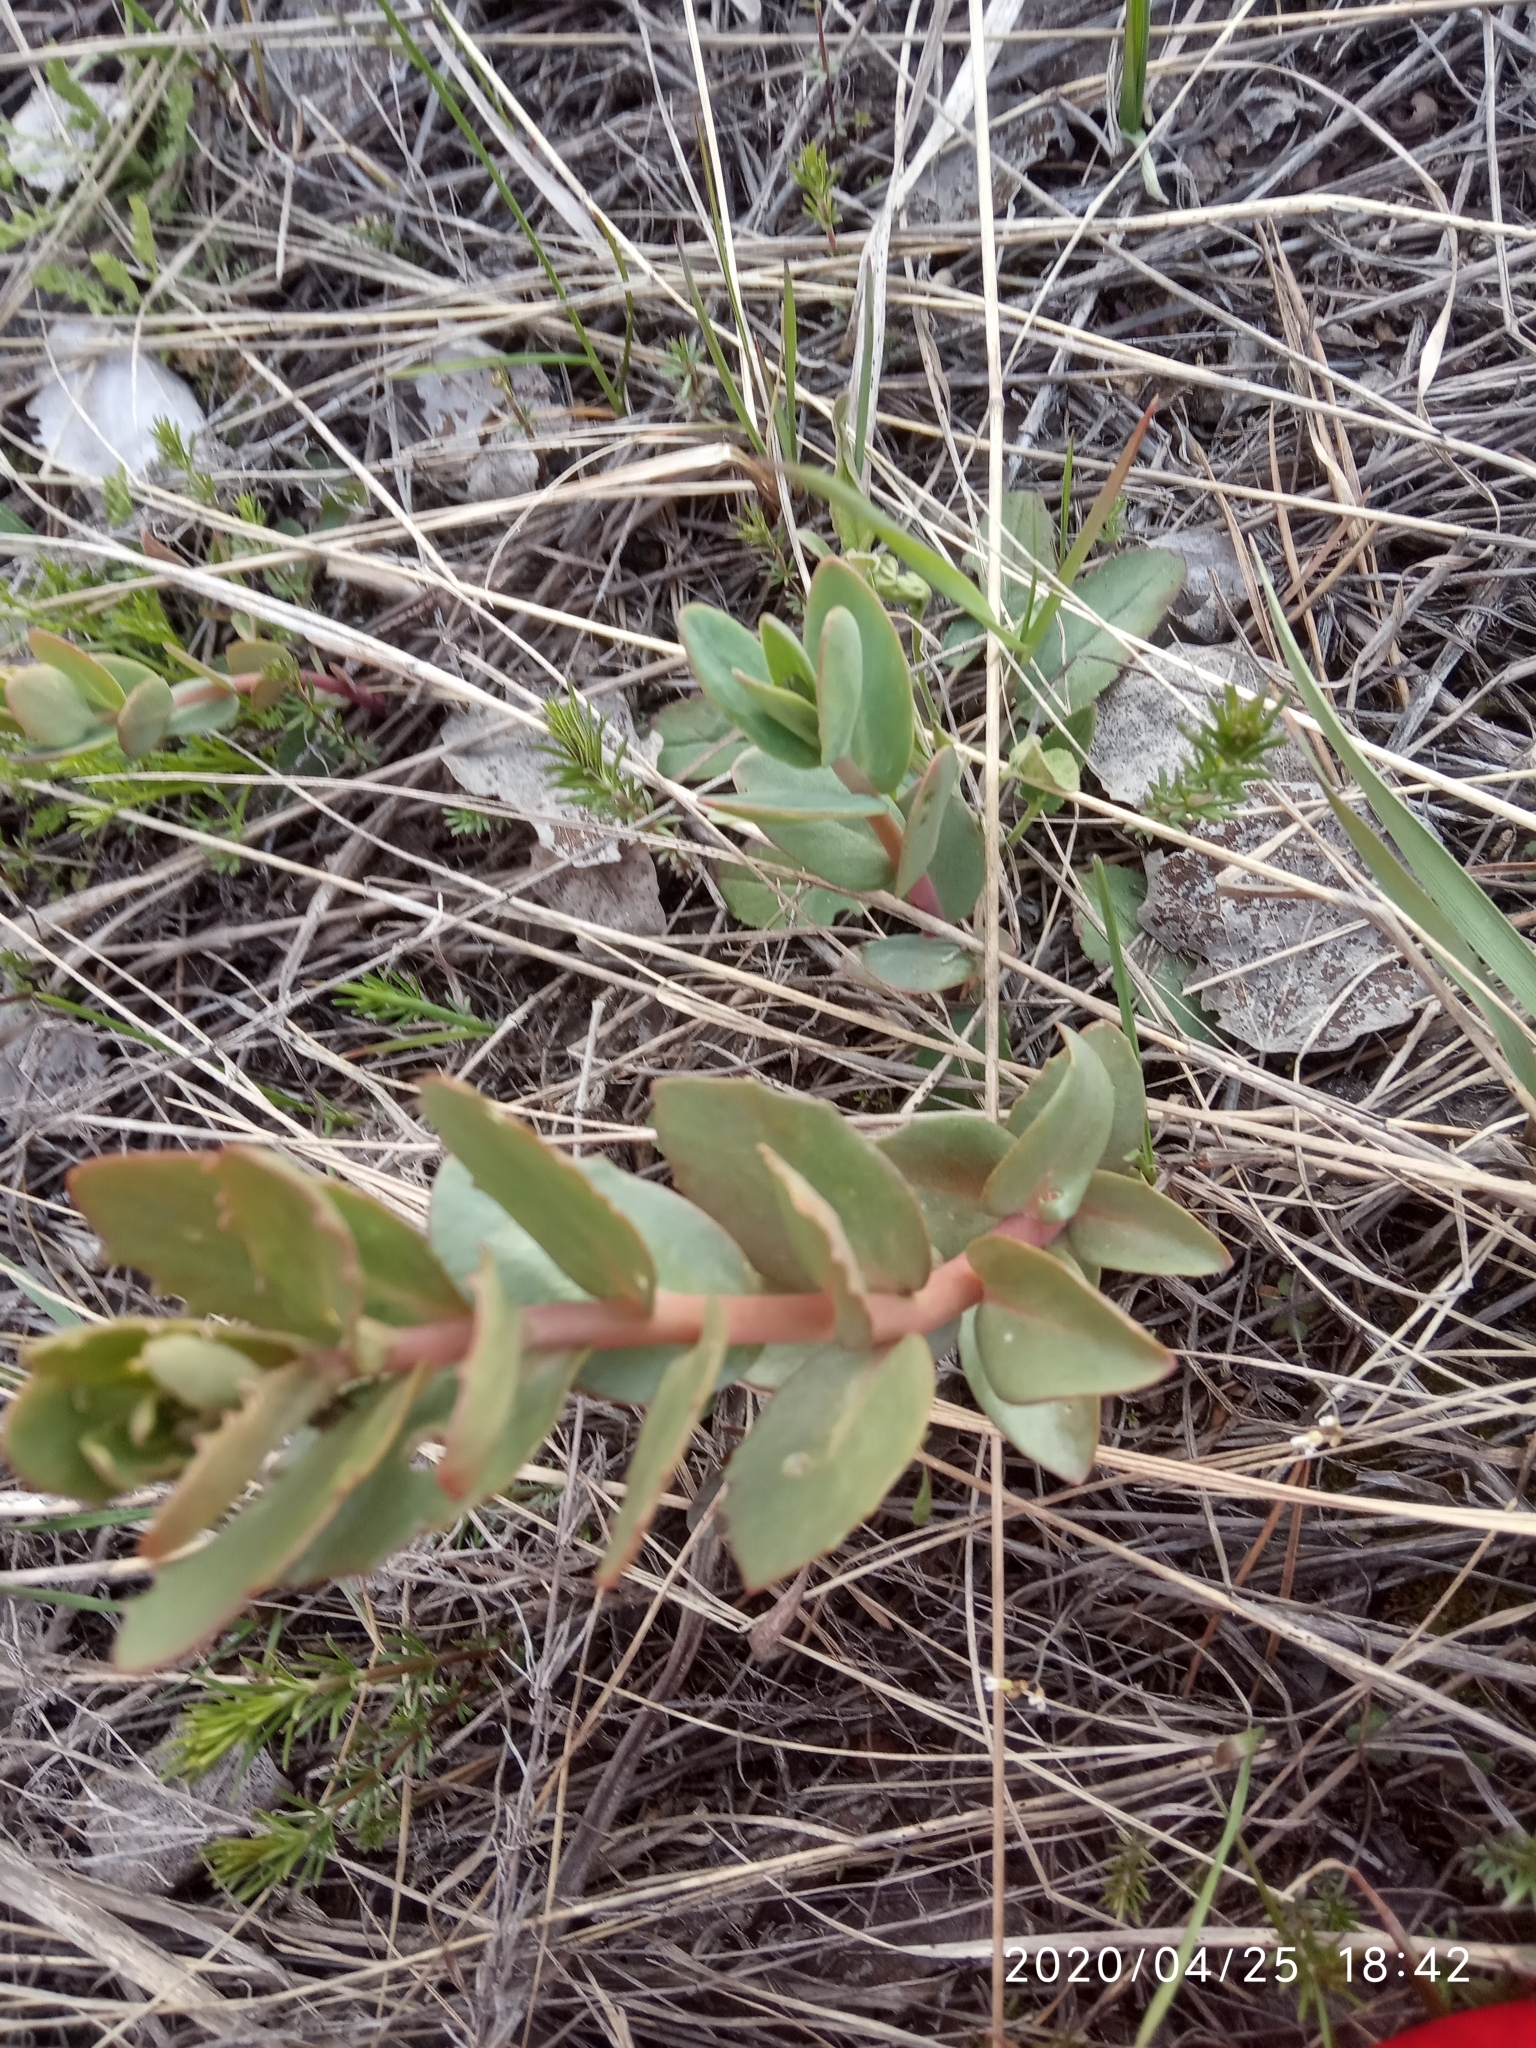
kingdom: Plantae
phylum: Tracheophyta
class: Magnoliopsida
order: Saxifragales
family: Crassulaceae
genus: Hylotelephium
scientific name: Hylotelephium maximum
